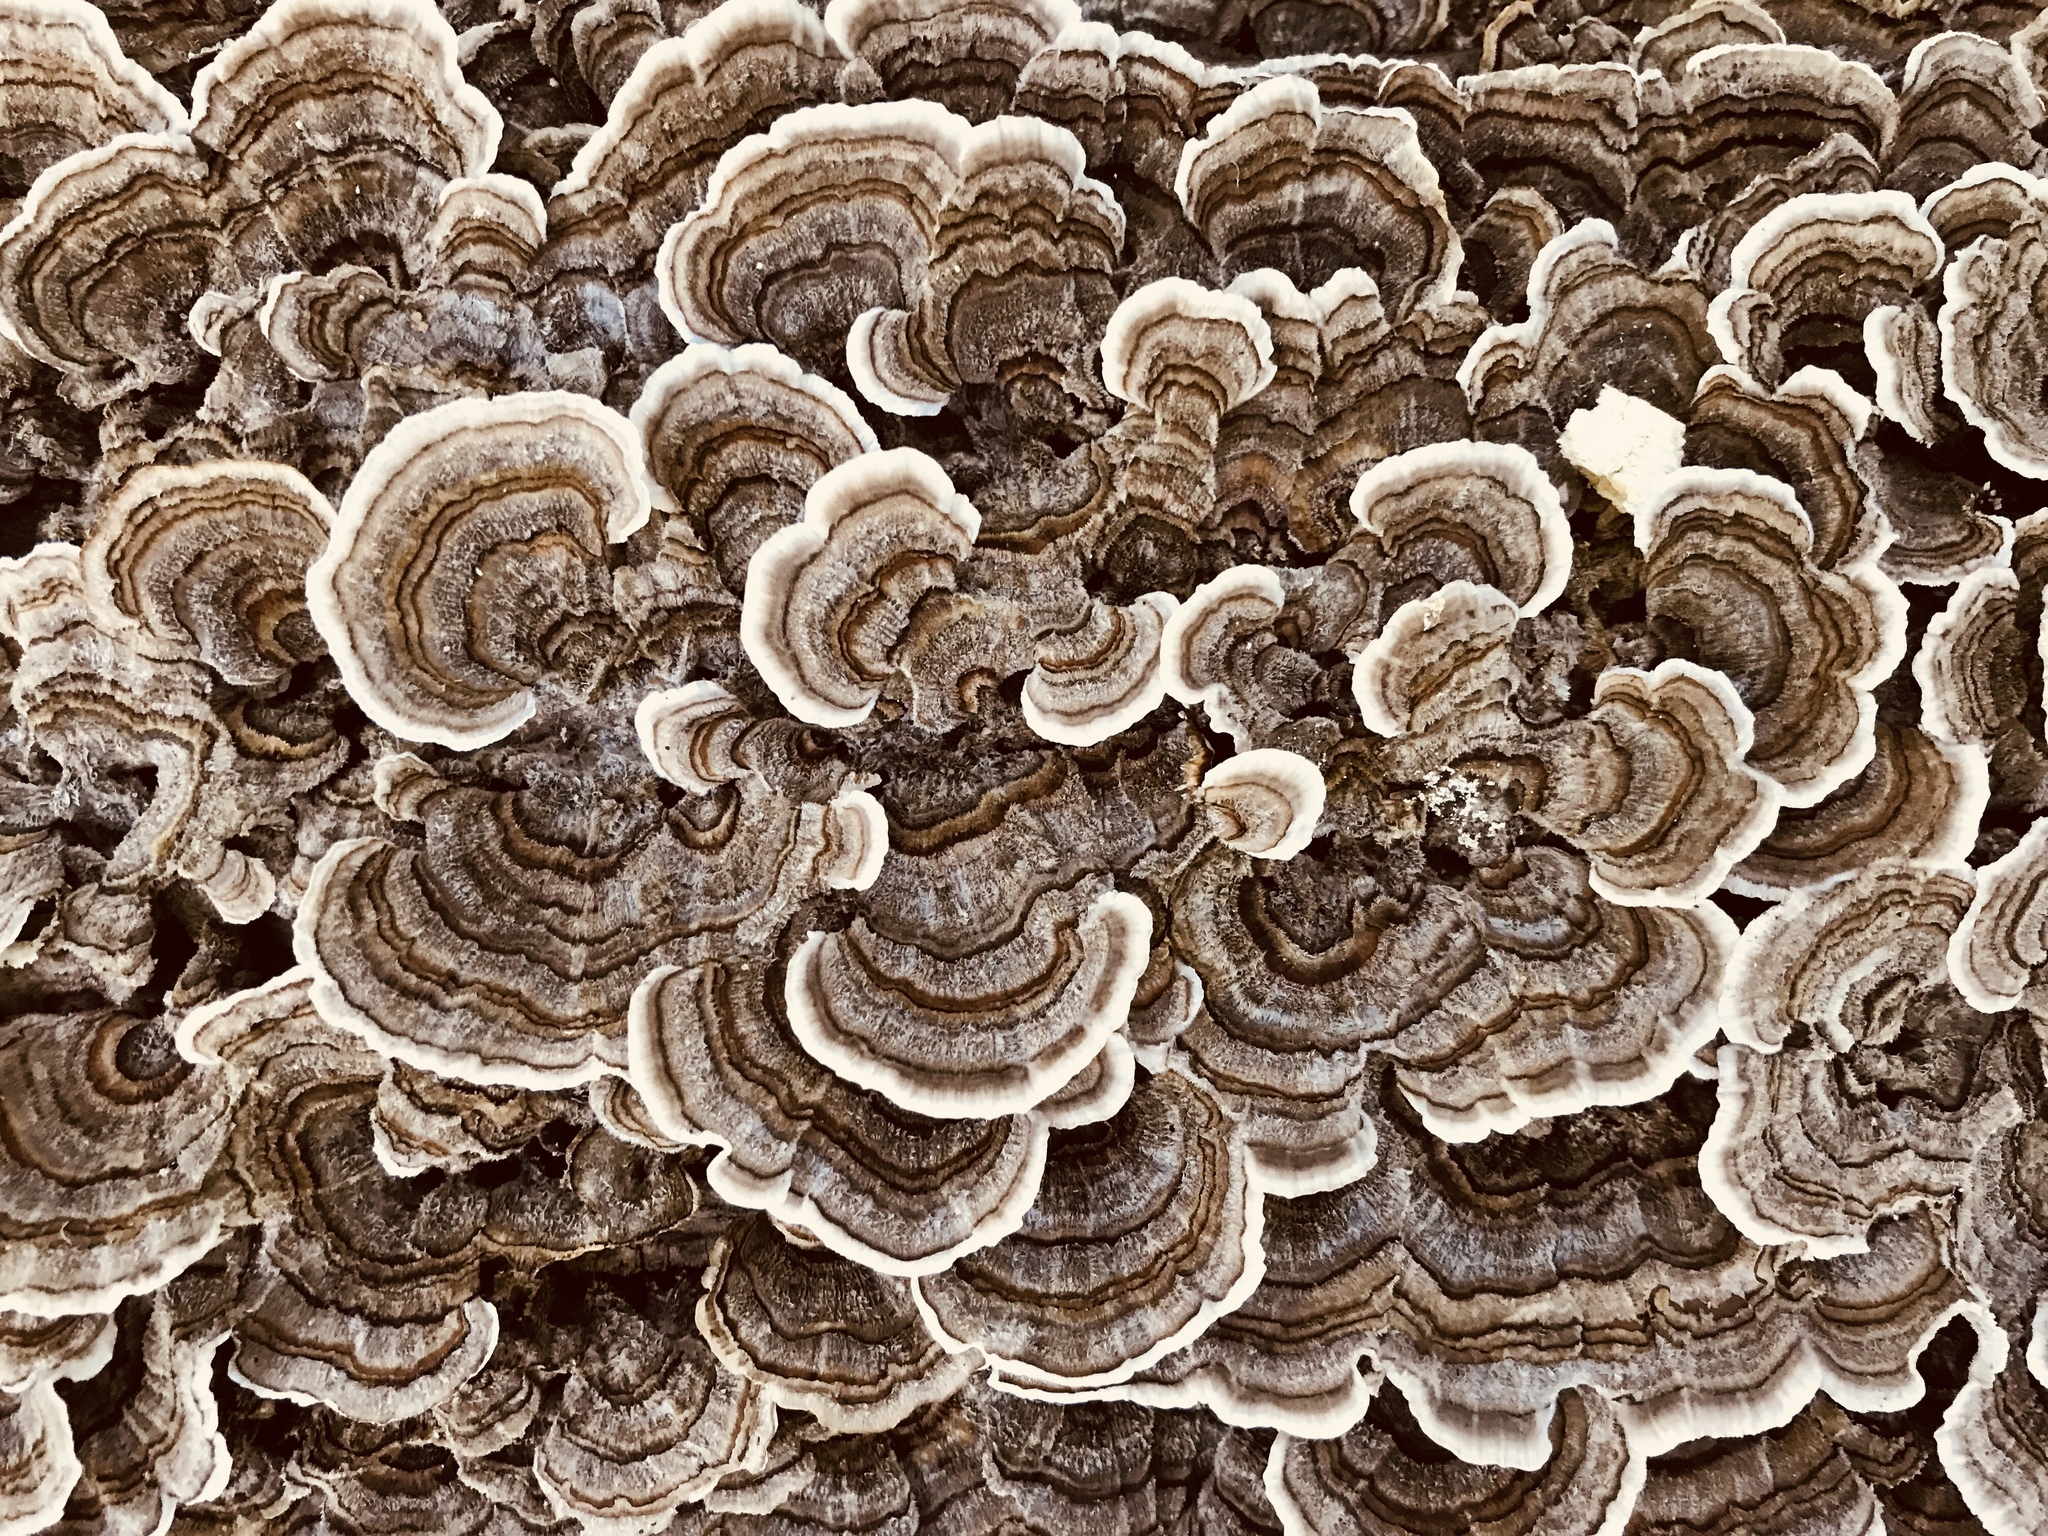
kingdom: Fungi
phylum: Basidiomycota
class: Agaricomycetes
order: Polyporales
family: Polyporaceae
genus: Trametes
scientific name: Trametes versicolor
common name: Turkeytail
